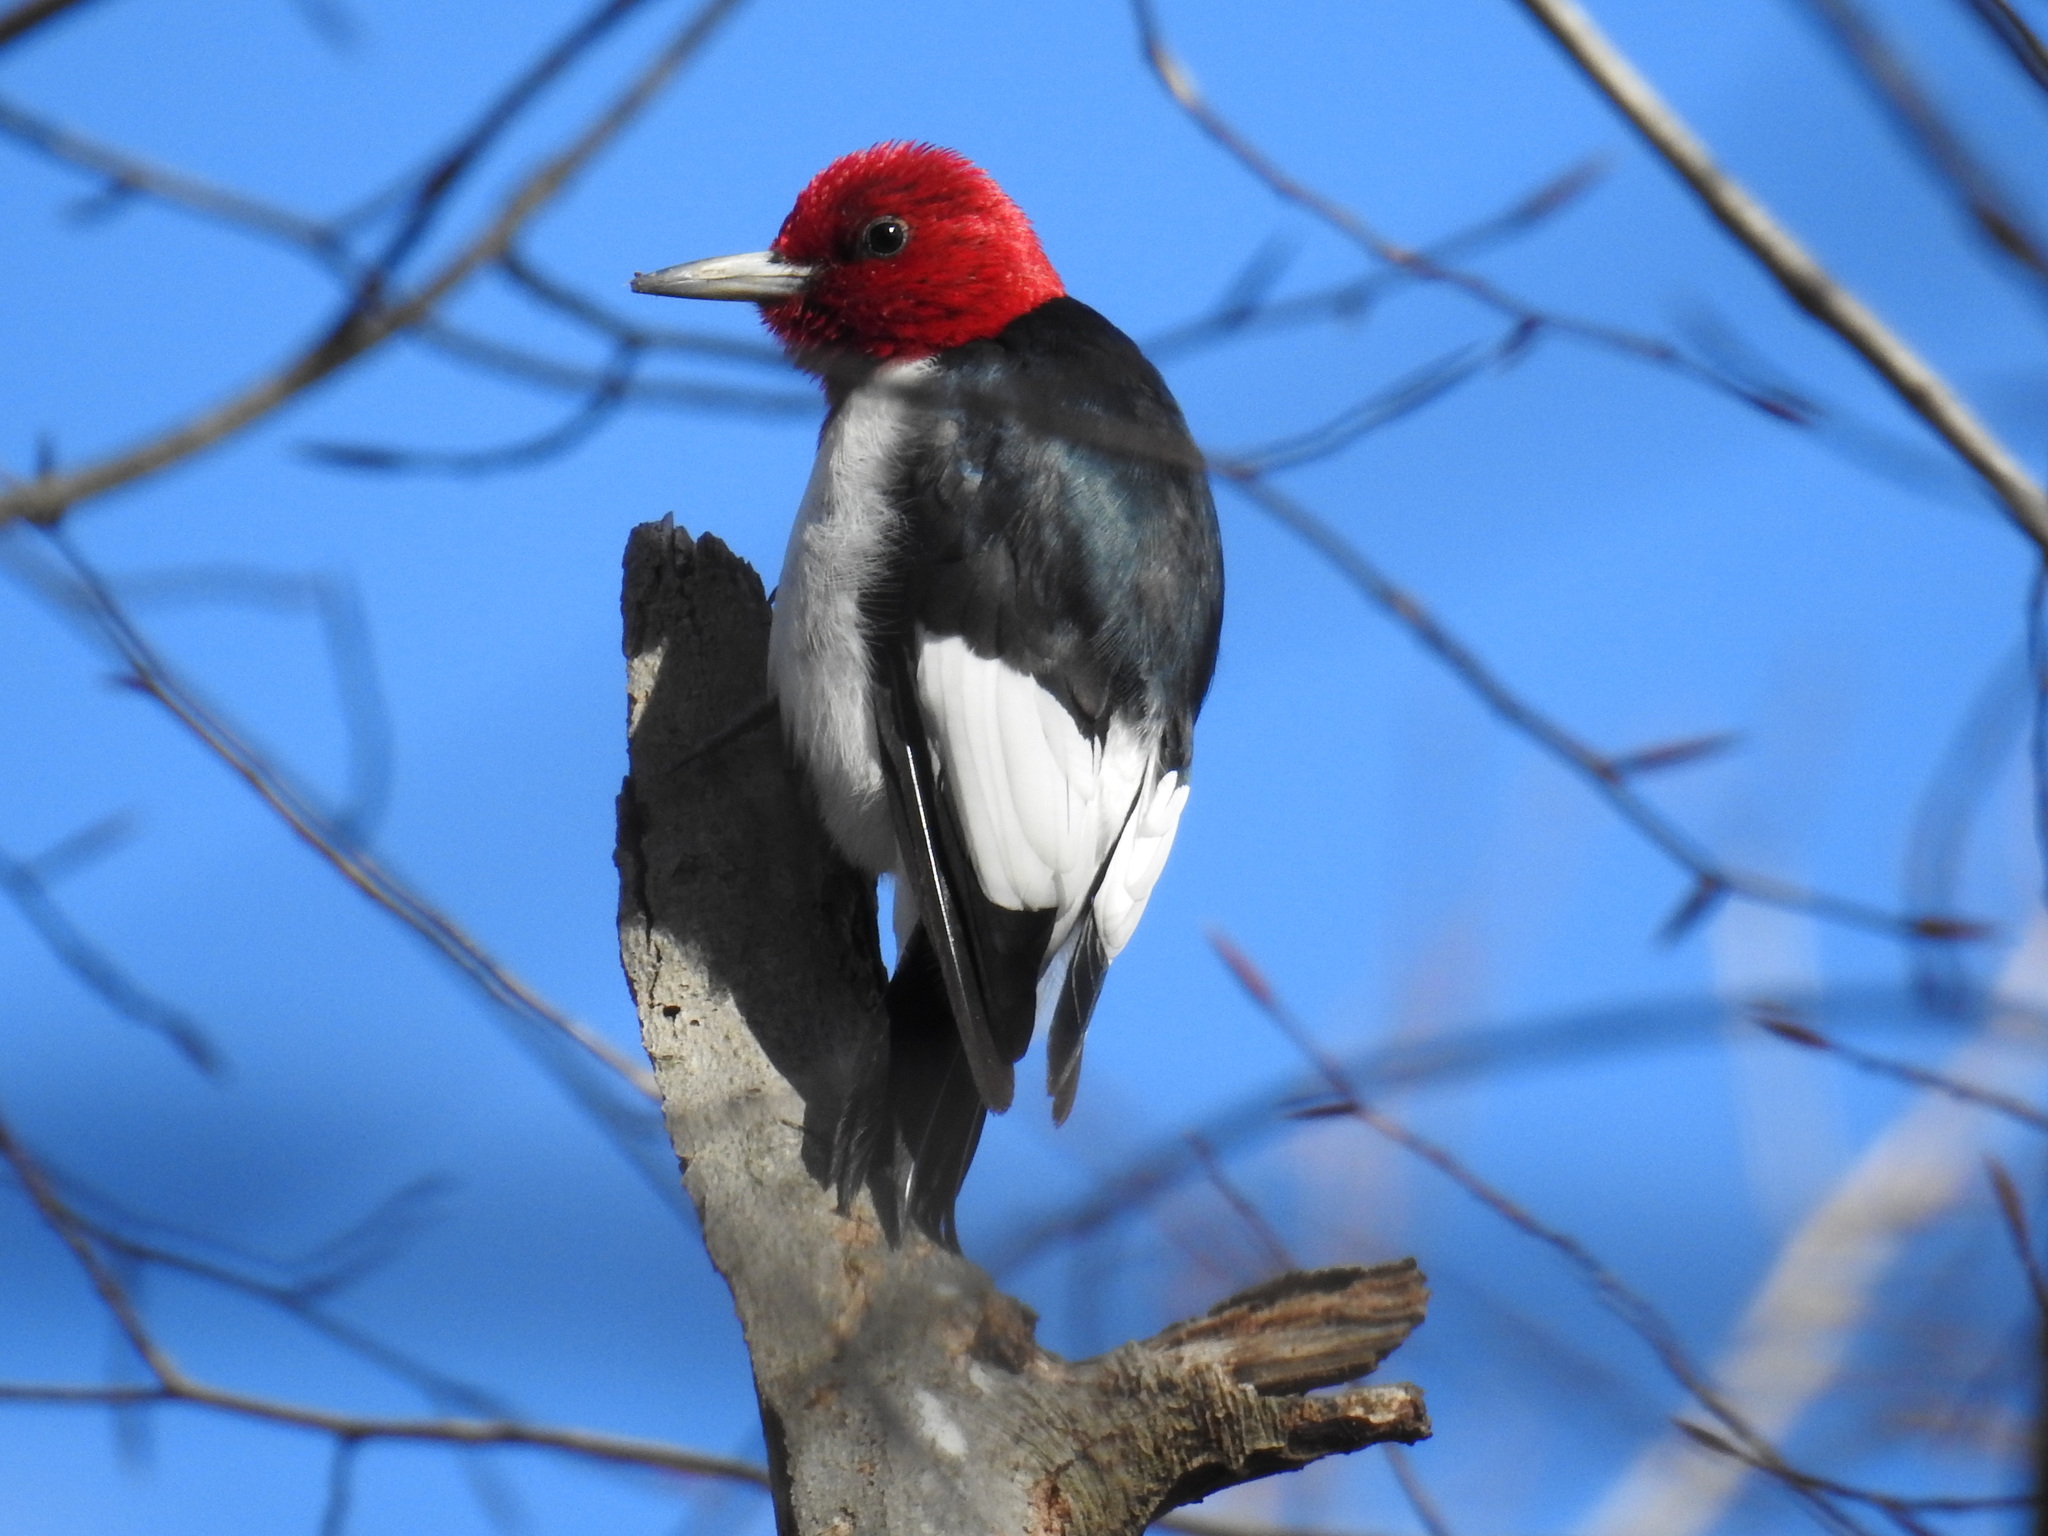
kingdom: Animalia
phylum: Chordata
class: Aves
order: Piciformes
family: Picidae
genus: Melanerpes
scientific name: Melanerpes erythrocephalus
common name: Red-headed woodpecker
